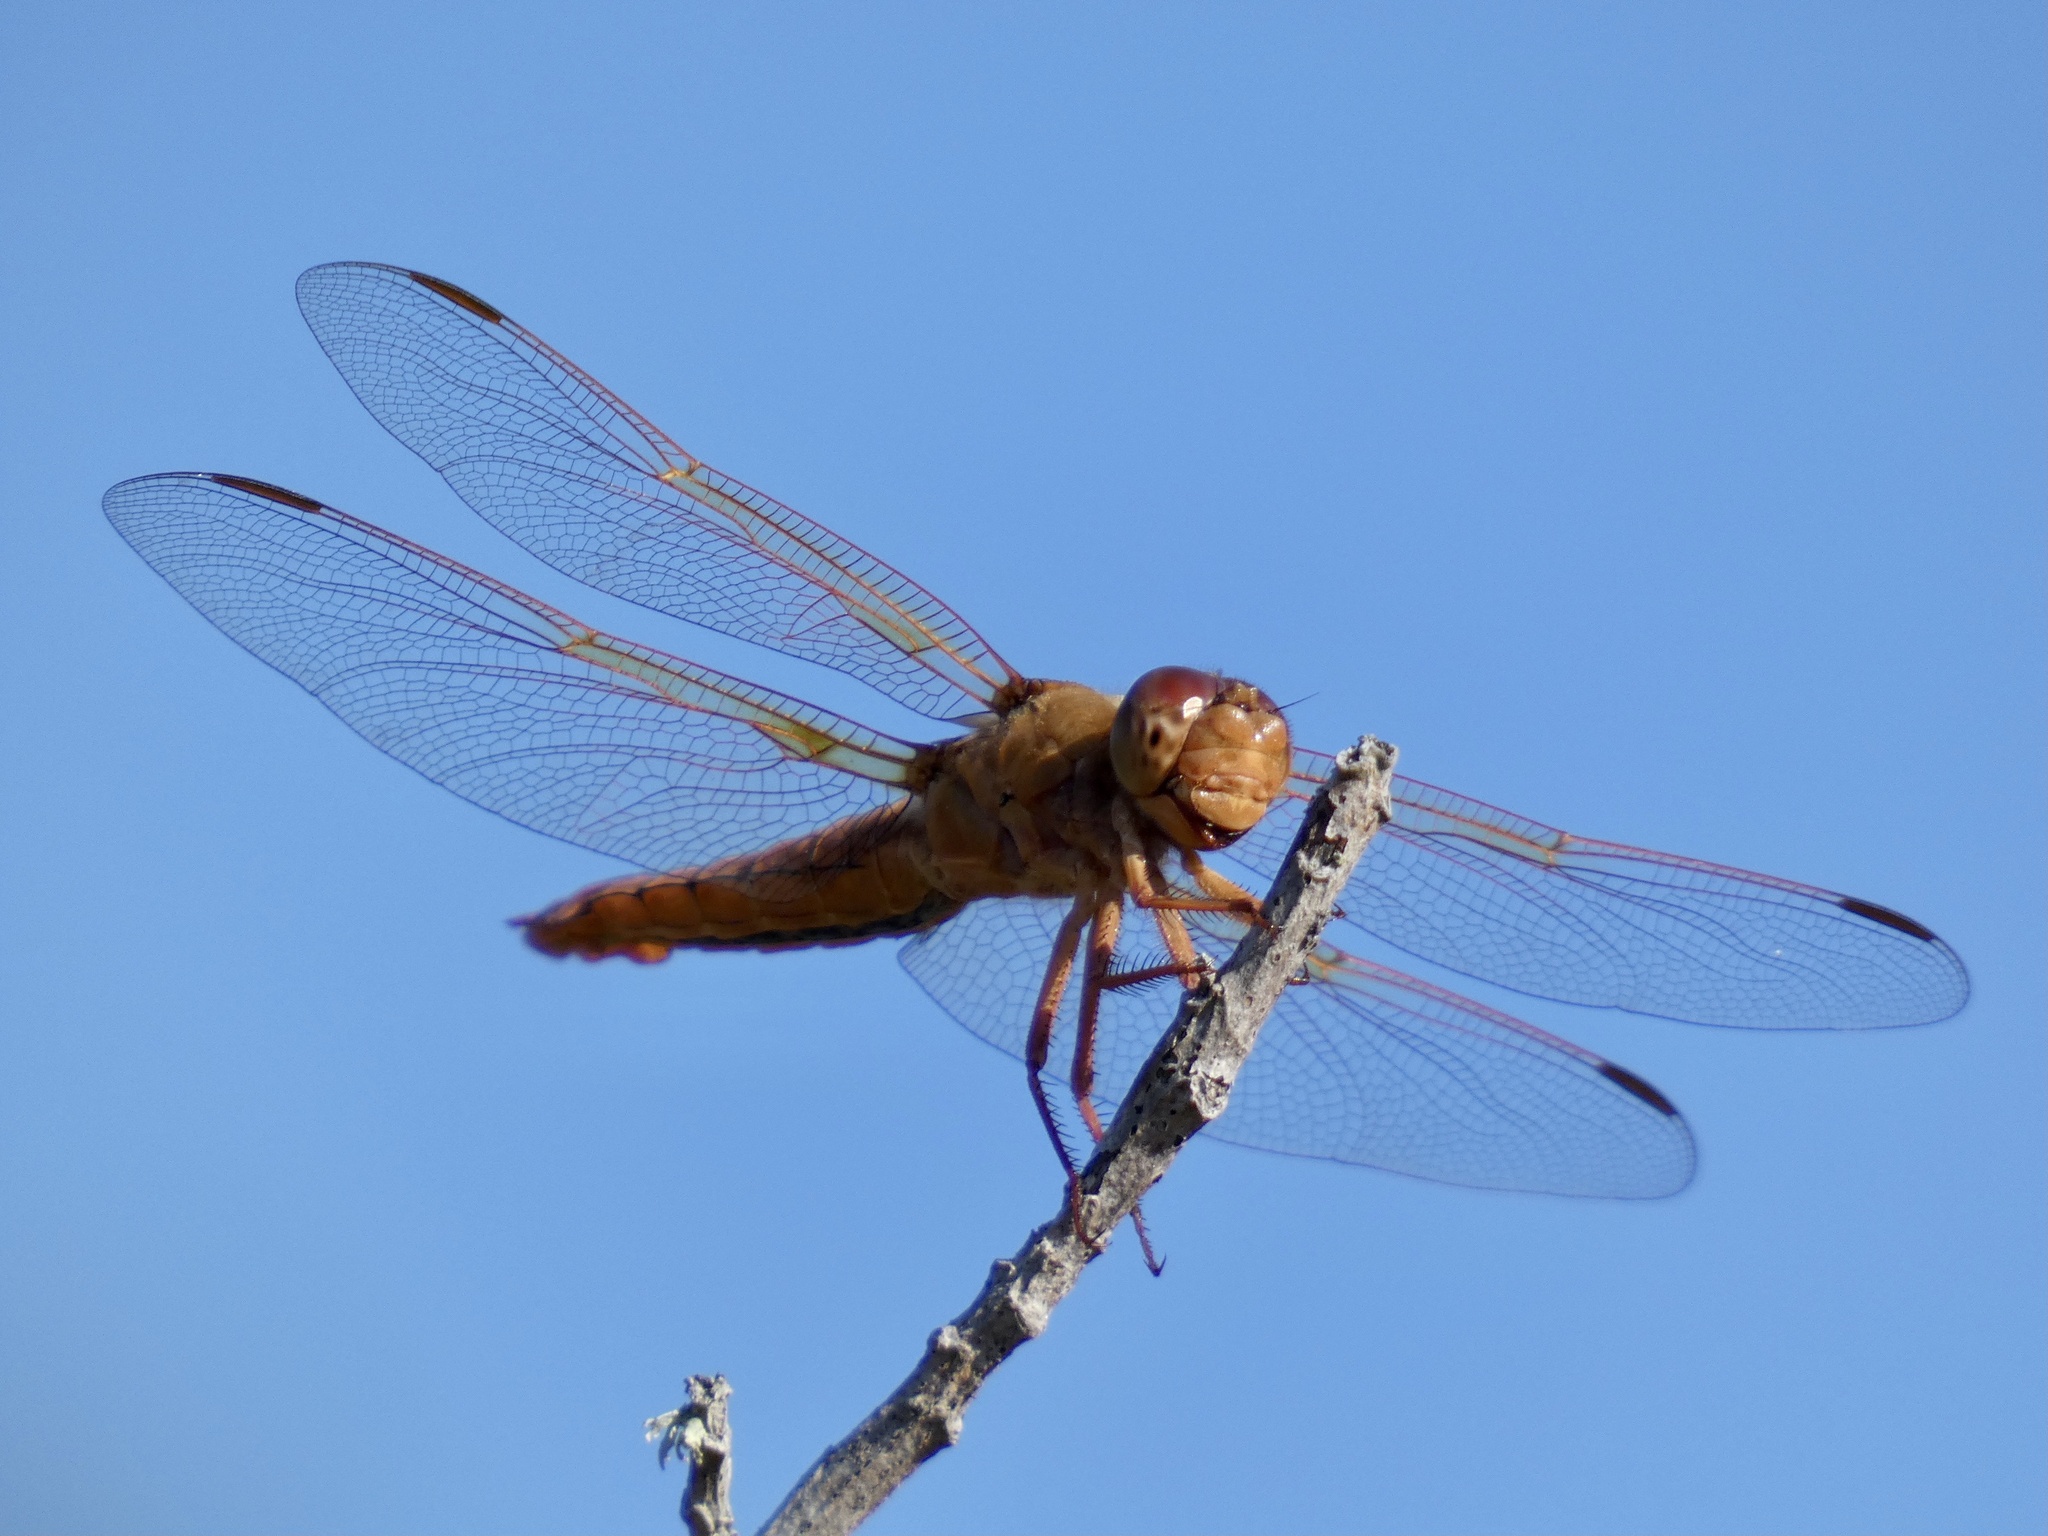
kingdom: Animalia
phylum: Arthropoda
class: Insecta
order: Odonata
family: Libellulidae
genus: Libellula
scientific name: Libellula saturata
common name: Flame skimmer
